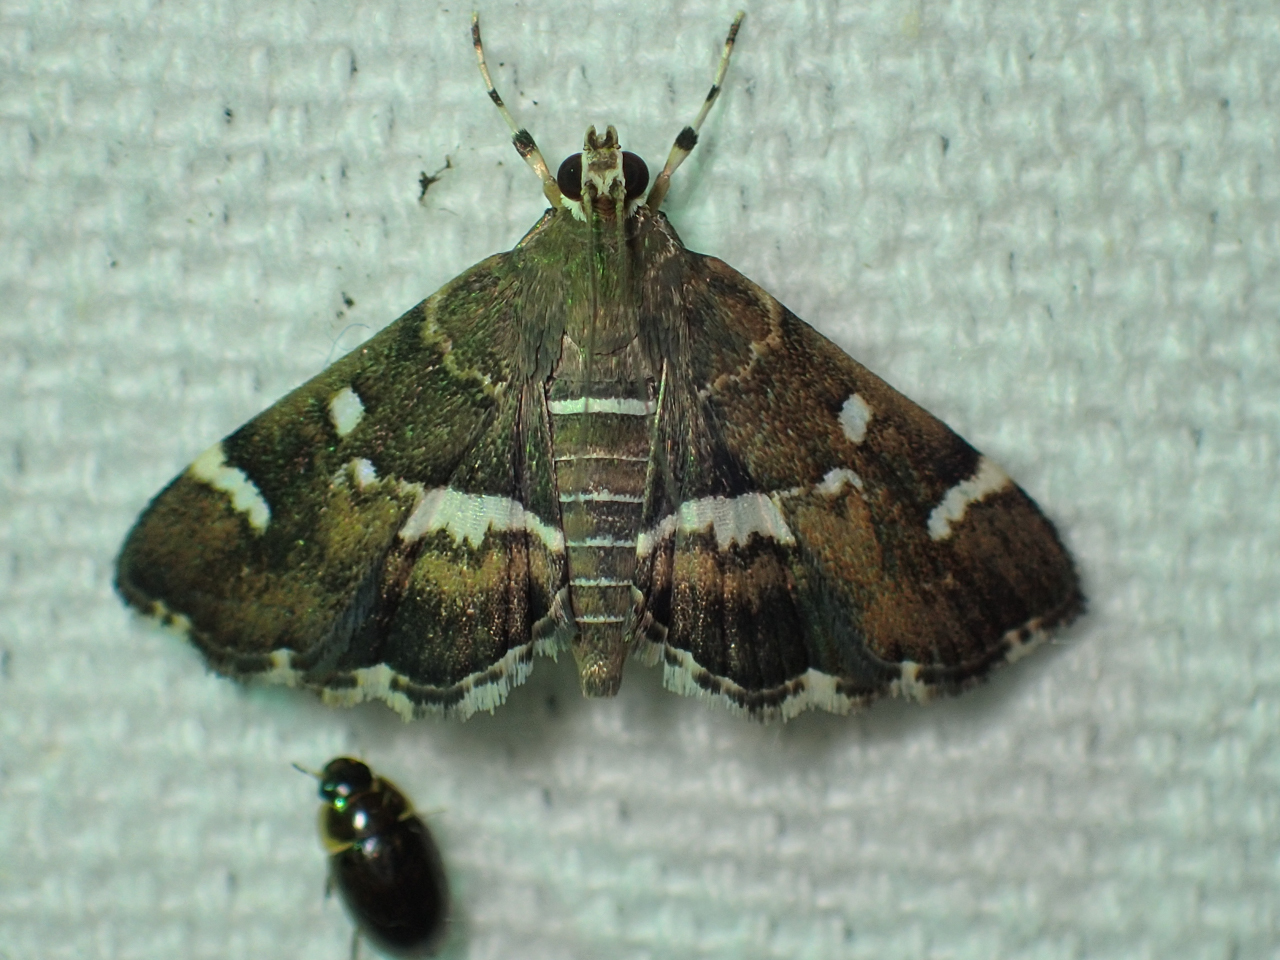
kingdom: Animalia
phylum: Arthropoda
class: Insecta
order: Lepidoptera
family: Crambidae
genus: Hymenia
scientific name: Hymenia perspectalis
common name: Spotted beet webworm
